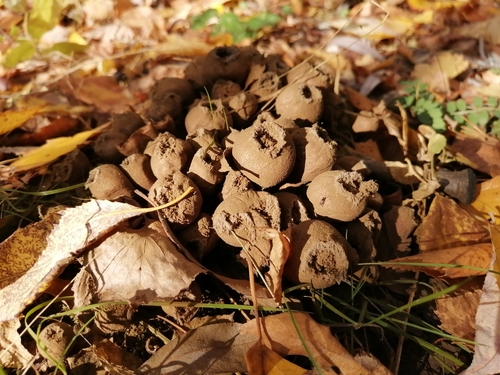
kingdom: Fungi
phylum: Basidiomycota
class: Agaricomycetes
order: Agaricales
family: Lycoperdaceae
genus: Apioperdon
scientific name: Apioperdon pyriforme
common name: Pear-shaped puffball
